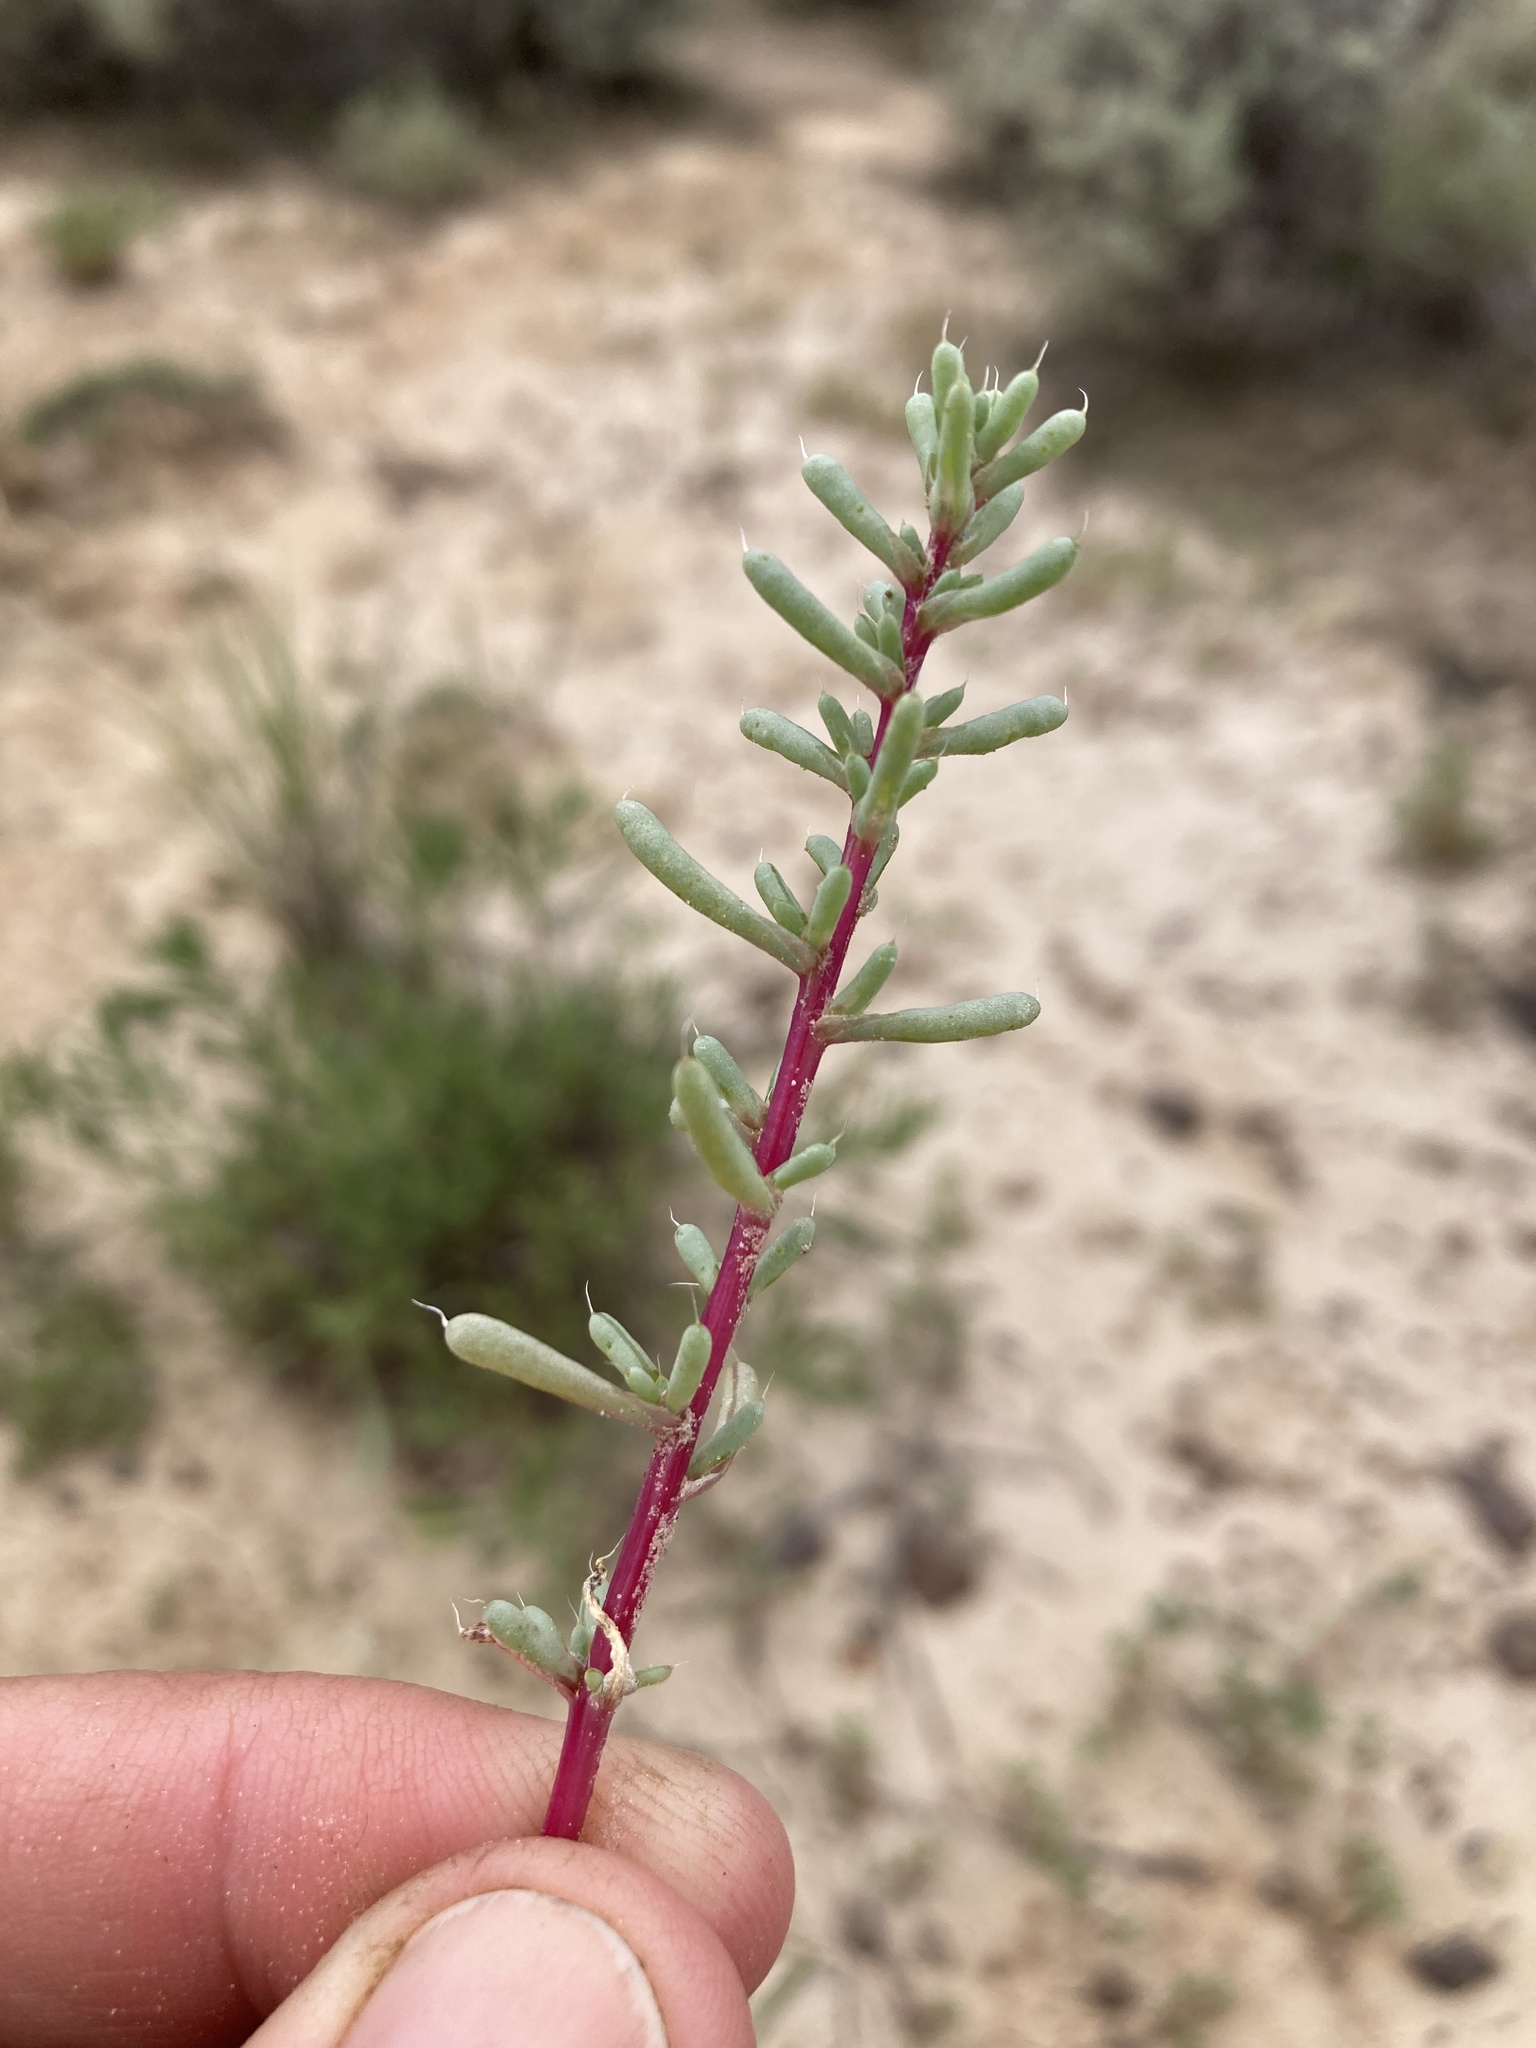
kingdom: Plantae
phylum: Tracheophyta
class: Magnoliopsida
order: Caryophyllales
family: Amaranthaceae
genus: Halogeton
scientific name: Halogeton glomeratus
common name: Saltlover
